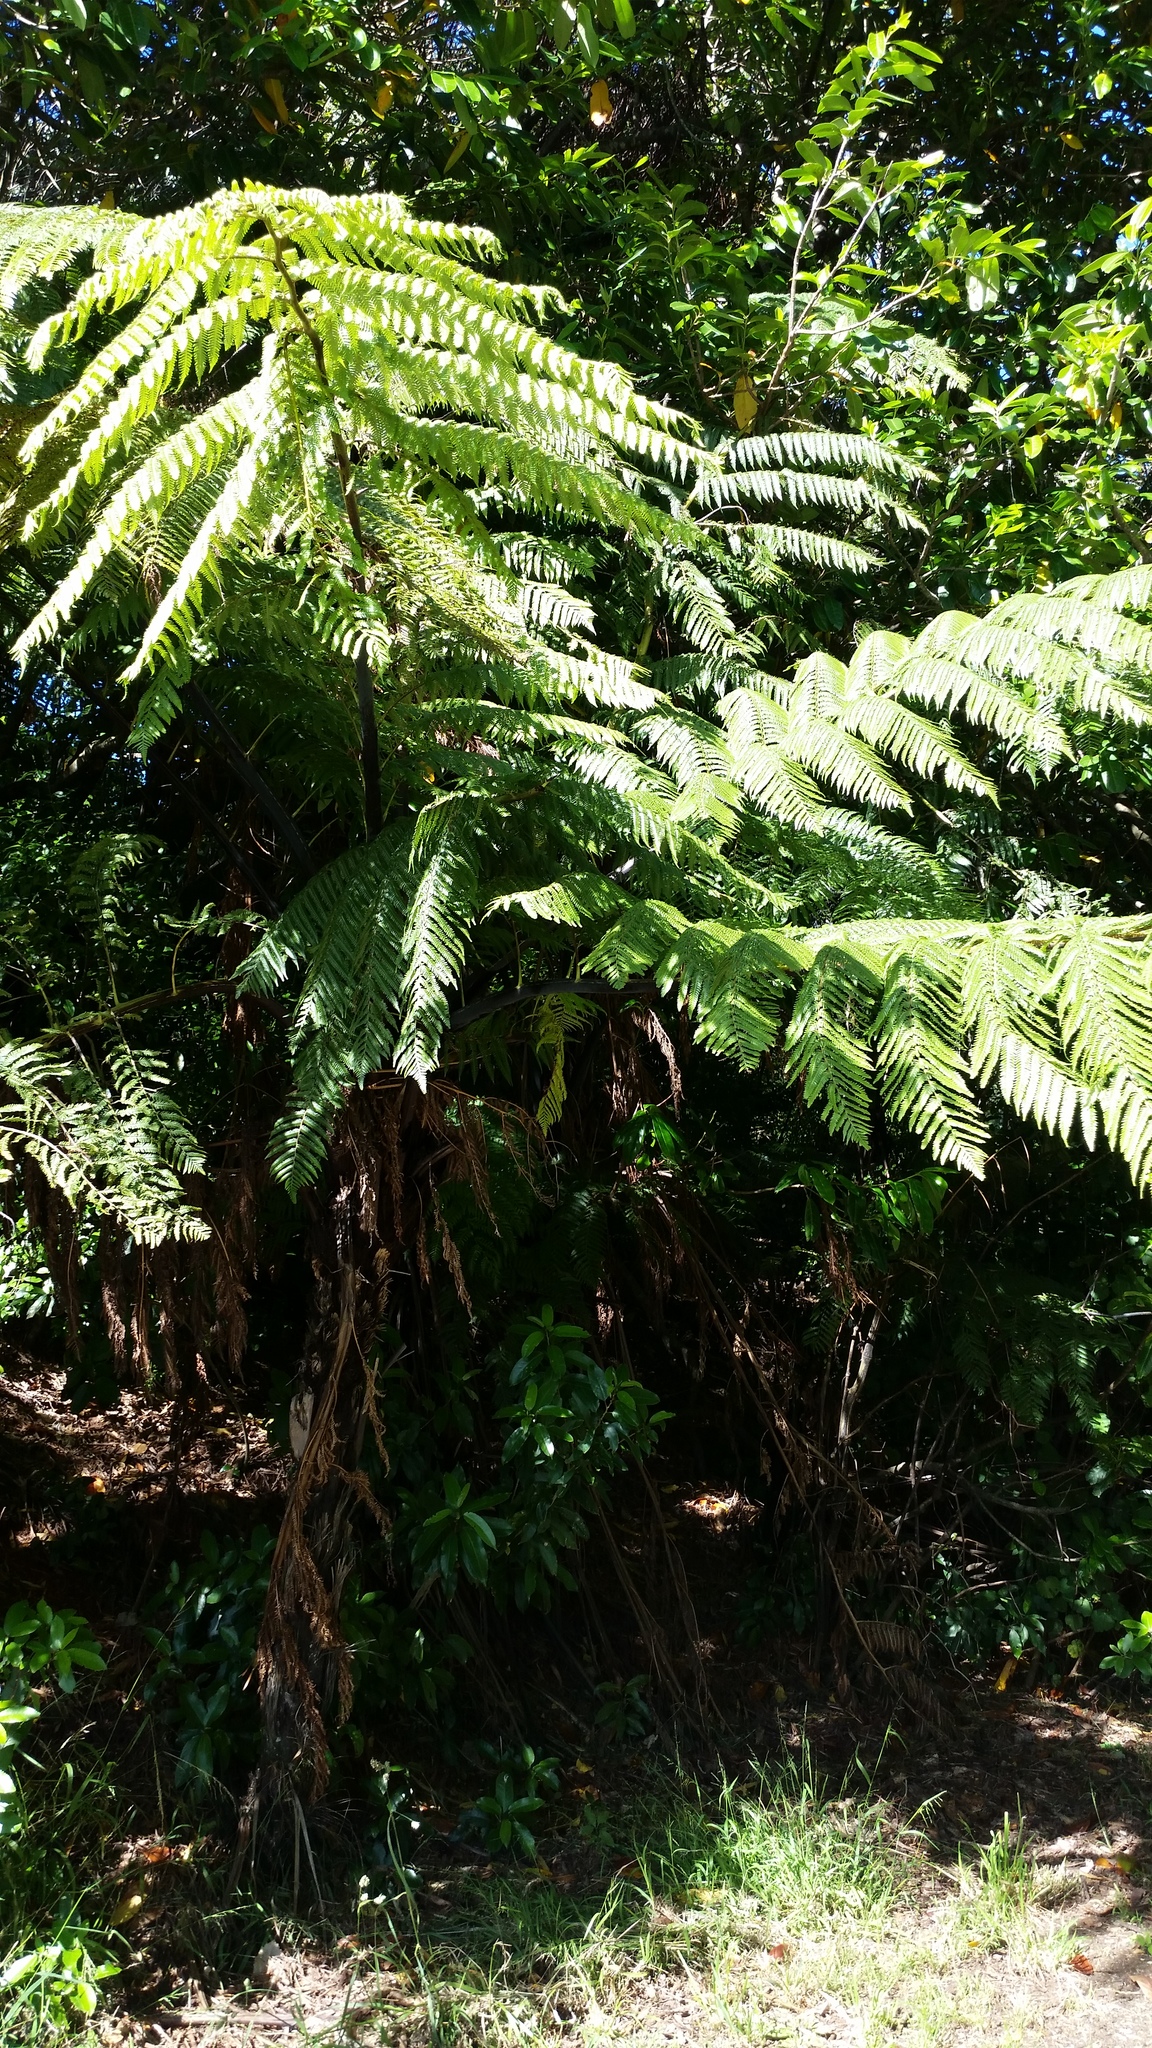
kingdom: Plantae
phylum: Tracheophyta
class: Polypodiopsida
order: Cyatheales
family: Cyatheaceae
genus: Sphaeropteris
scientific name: Sphaeropteris medullaris
